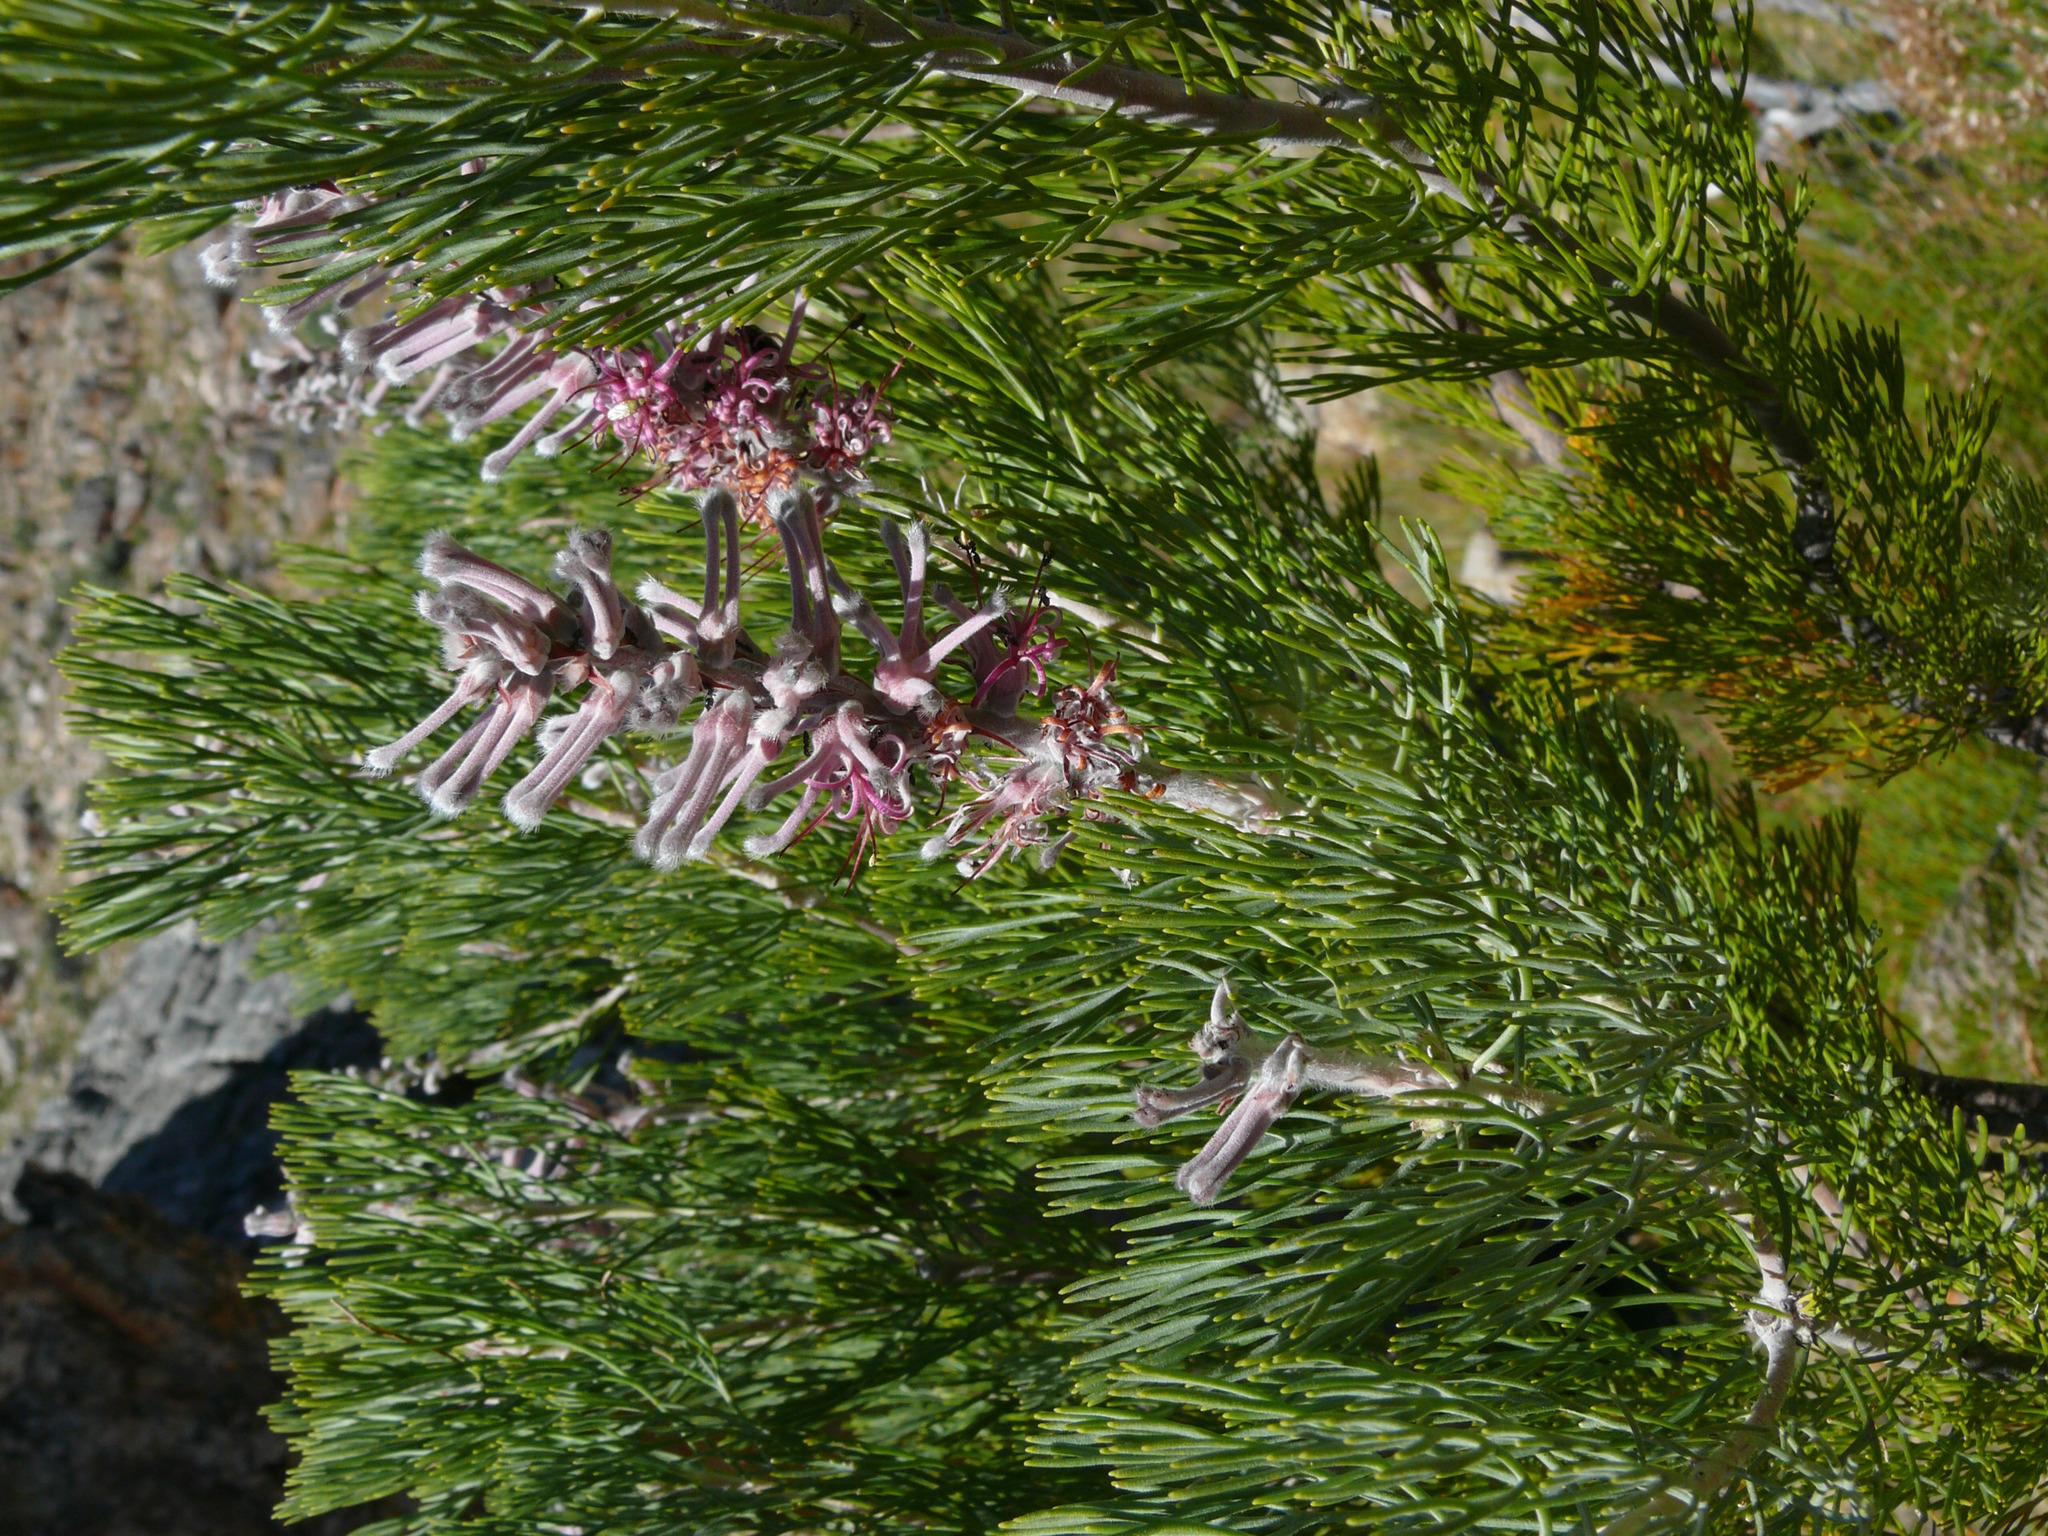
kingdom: Plantae
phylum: Tracheophyta
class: Magnoliopsida
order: Proteales
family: Proteaceae
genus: Paranomus
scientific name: Paranomus bracteolaris
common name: Bokkeveld tree sceptre
